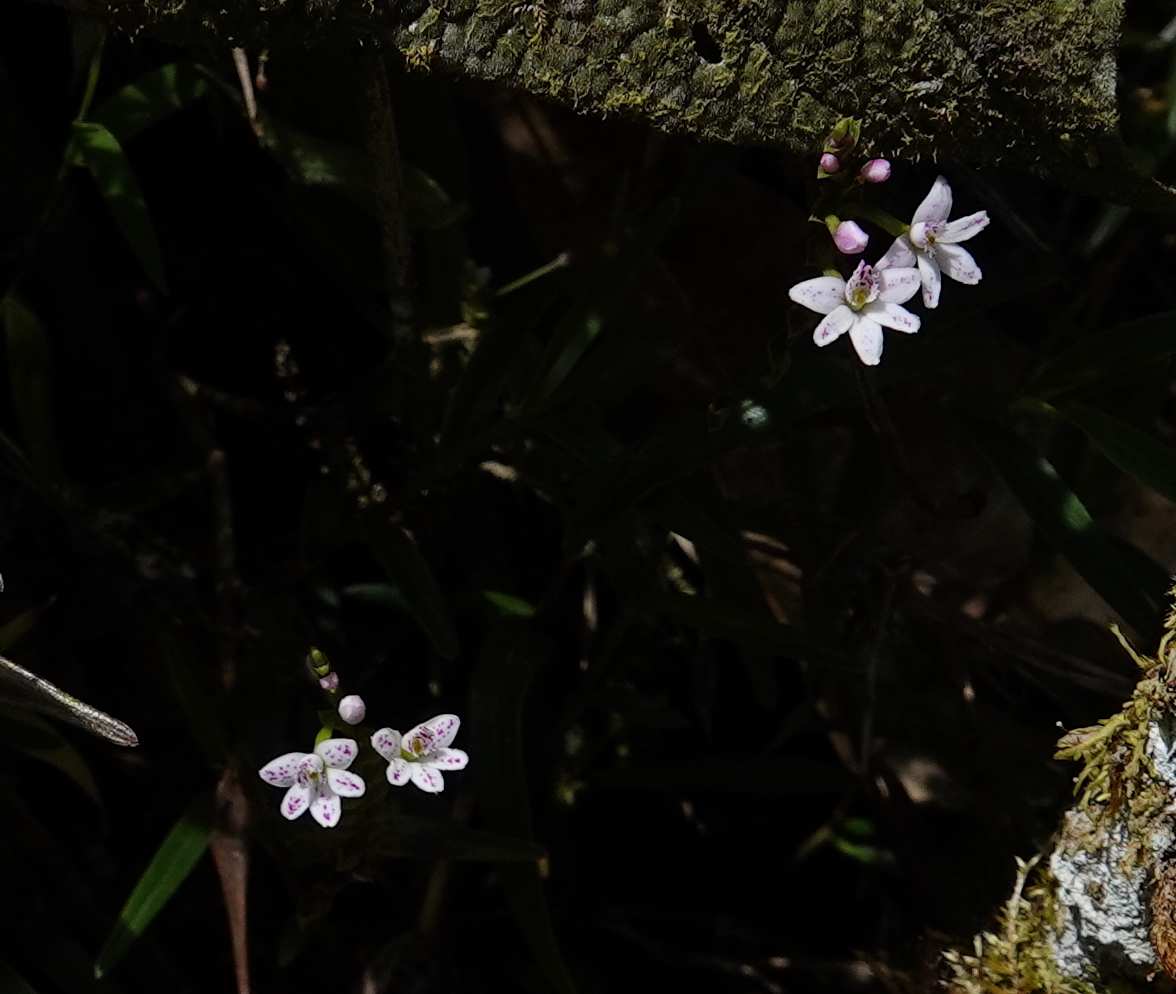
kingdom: Plantae
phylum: Tracheophyta
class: Liliopsida
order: Asparagales
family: Orchidaceae
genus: Epidendrum
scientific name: Epidendrum fimbriatum
